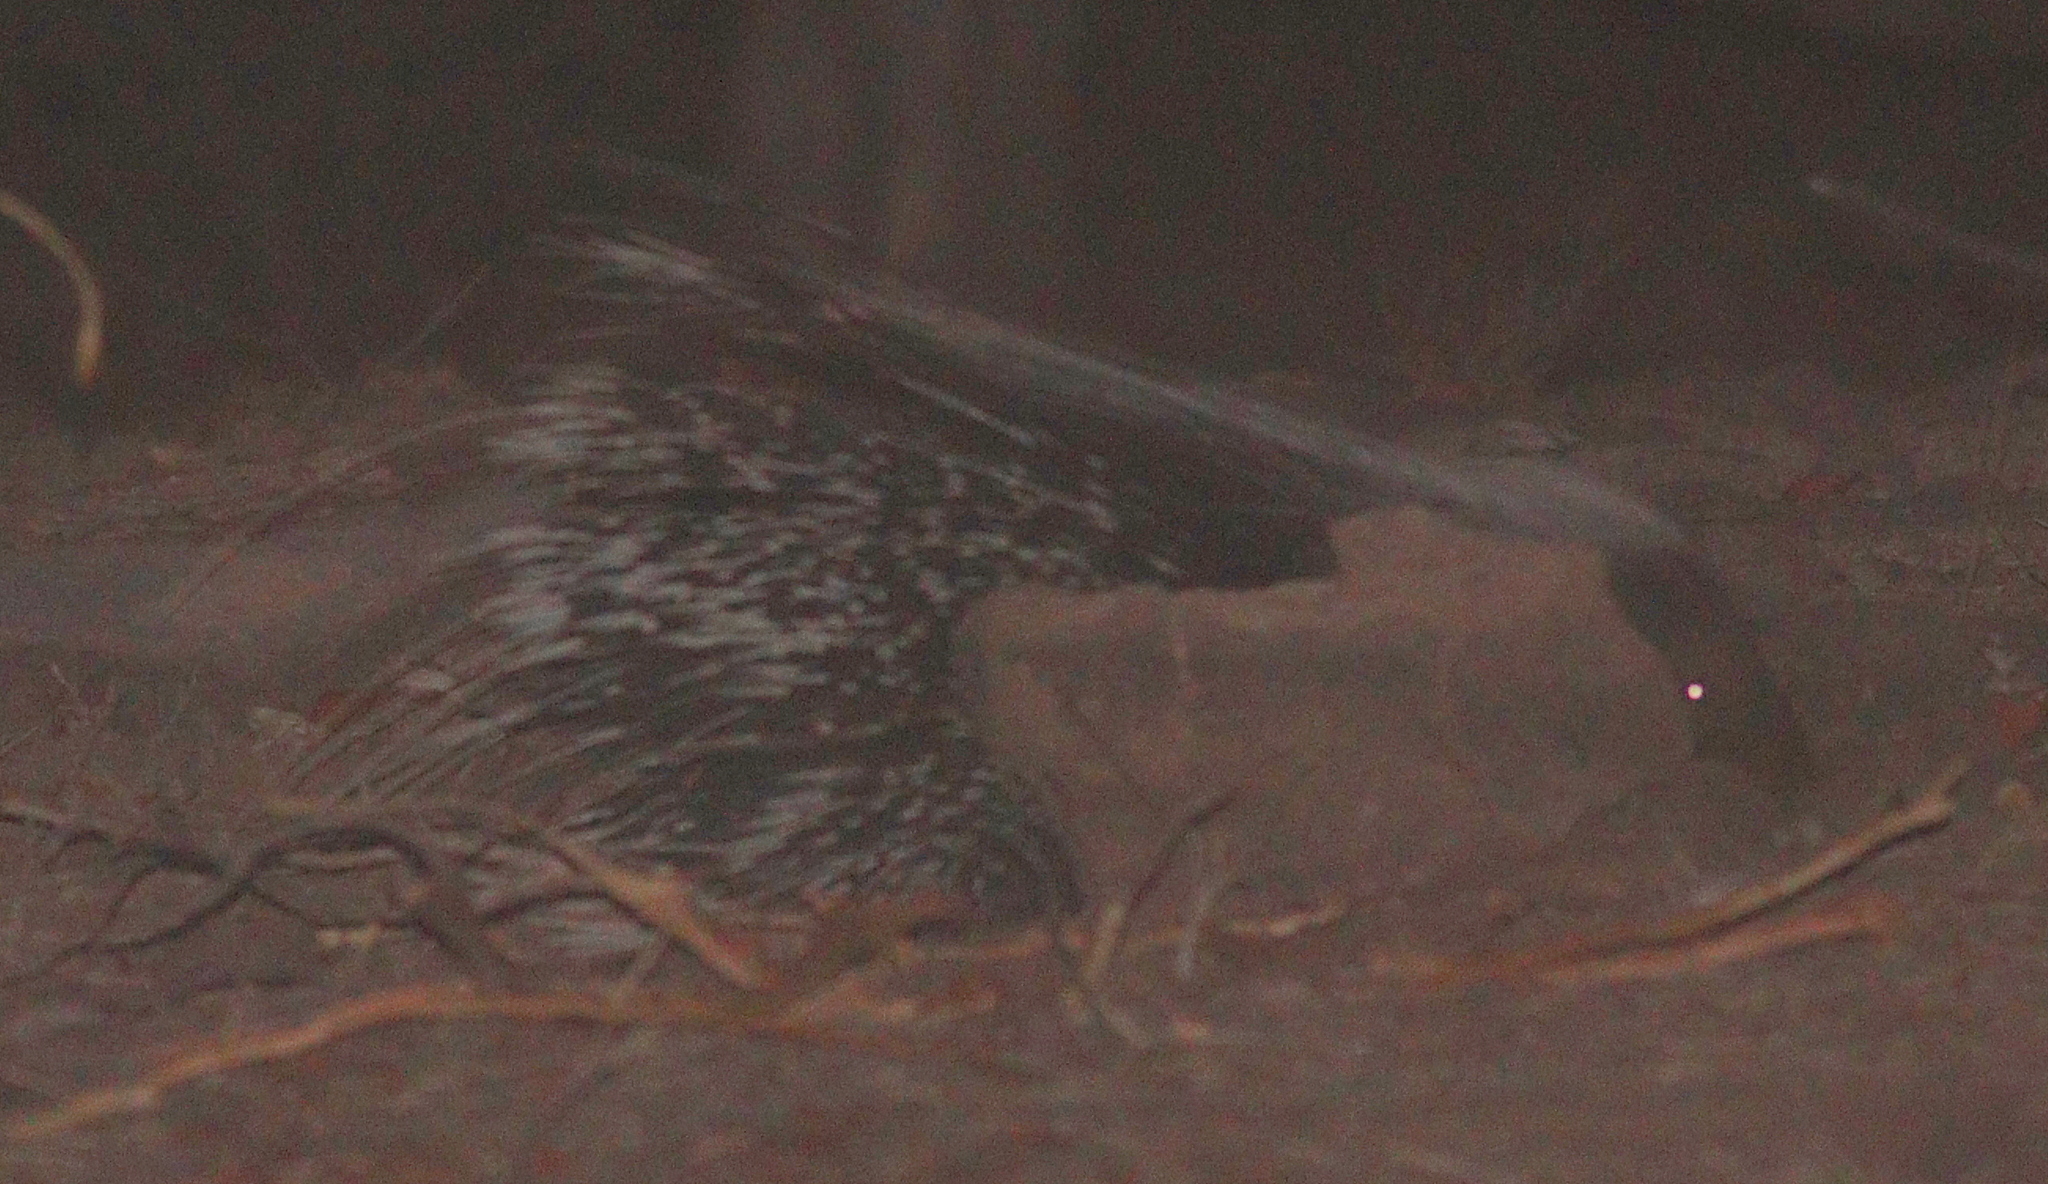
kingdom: Animalia
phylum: Chordata
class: Mammalia
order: Rodentia
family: Hystricidae
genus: Hystrix
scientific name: Hystrix africaeaustralis
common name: Cape porcupine
